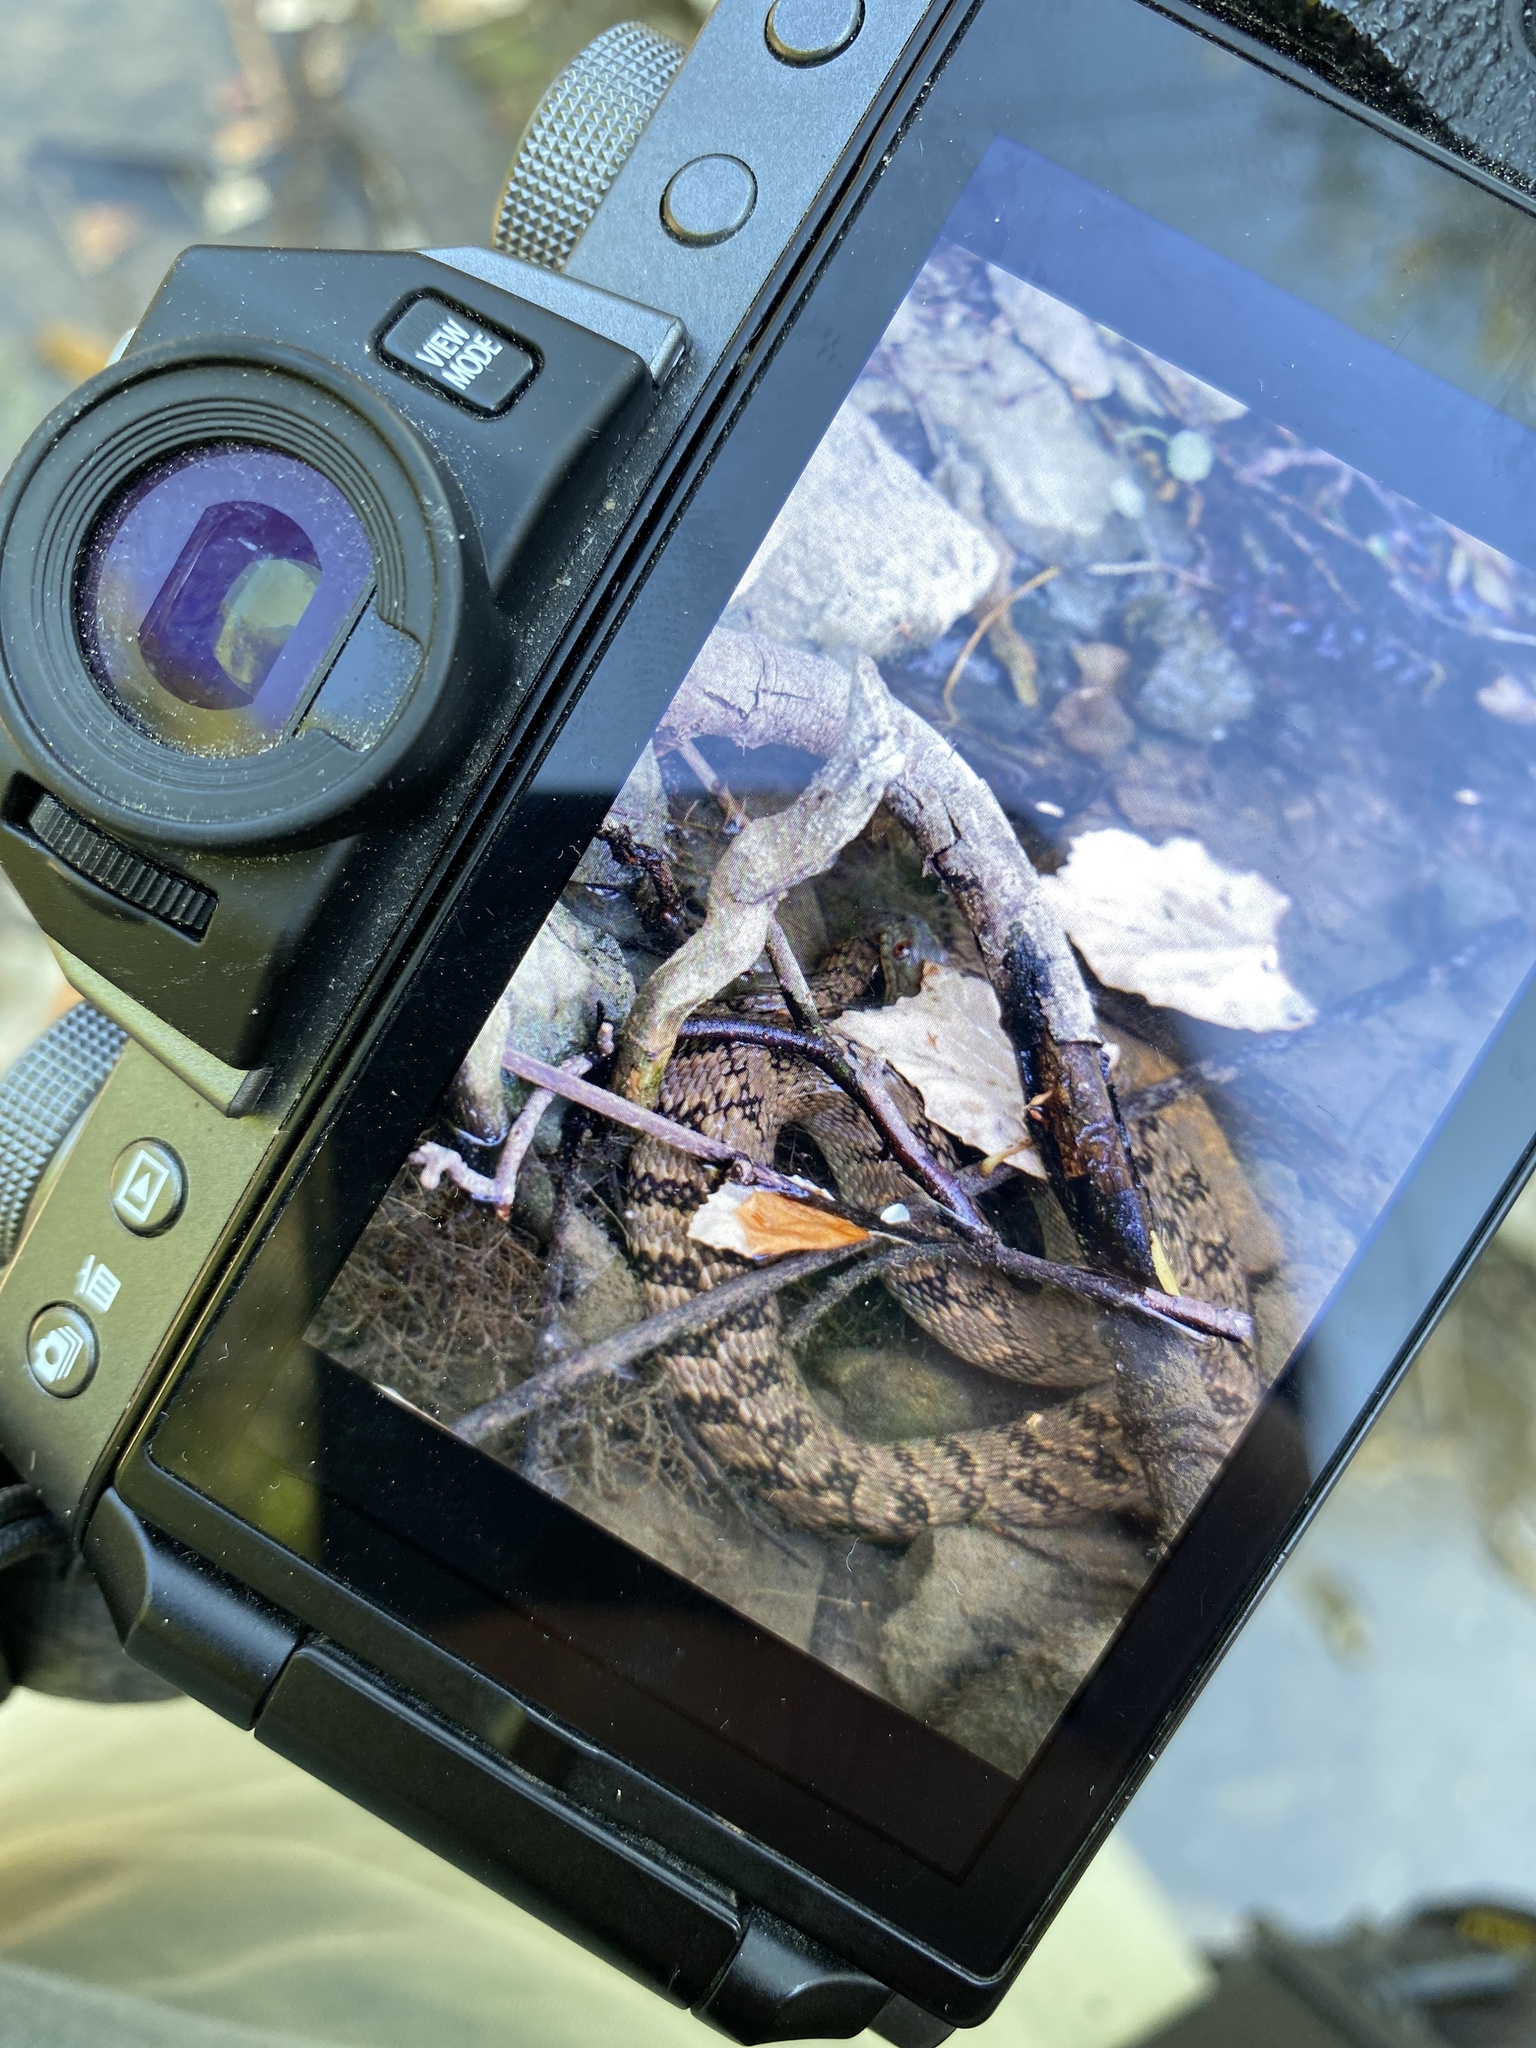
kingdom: Animalia
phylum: Chordata
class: Squamata
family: Colubridae
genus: Nerodia
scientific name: Nerodia rhombifer
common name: Diamondback water snake
